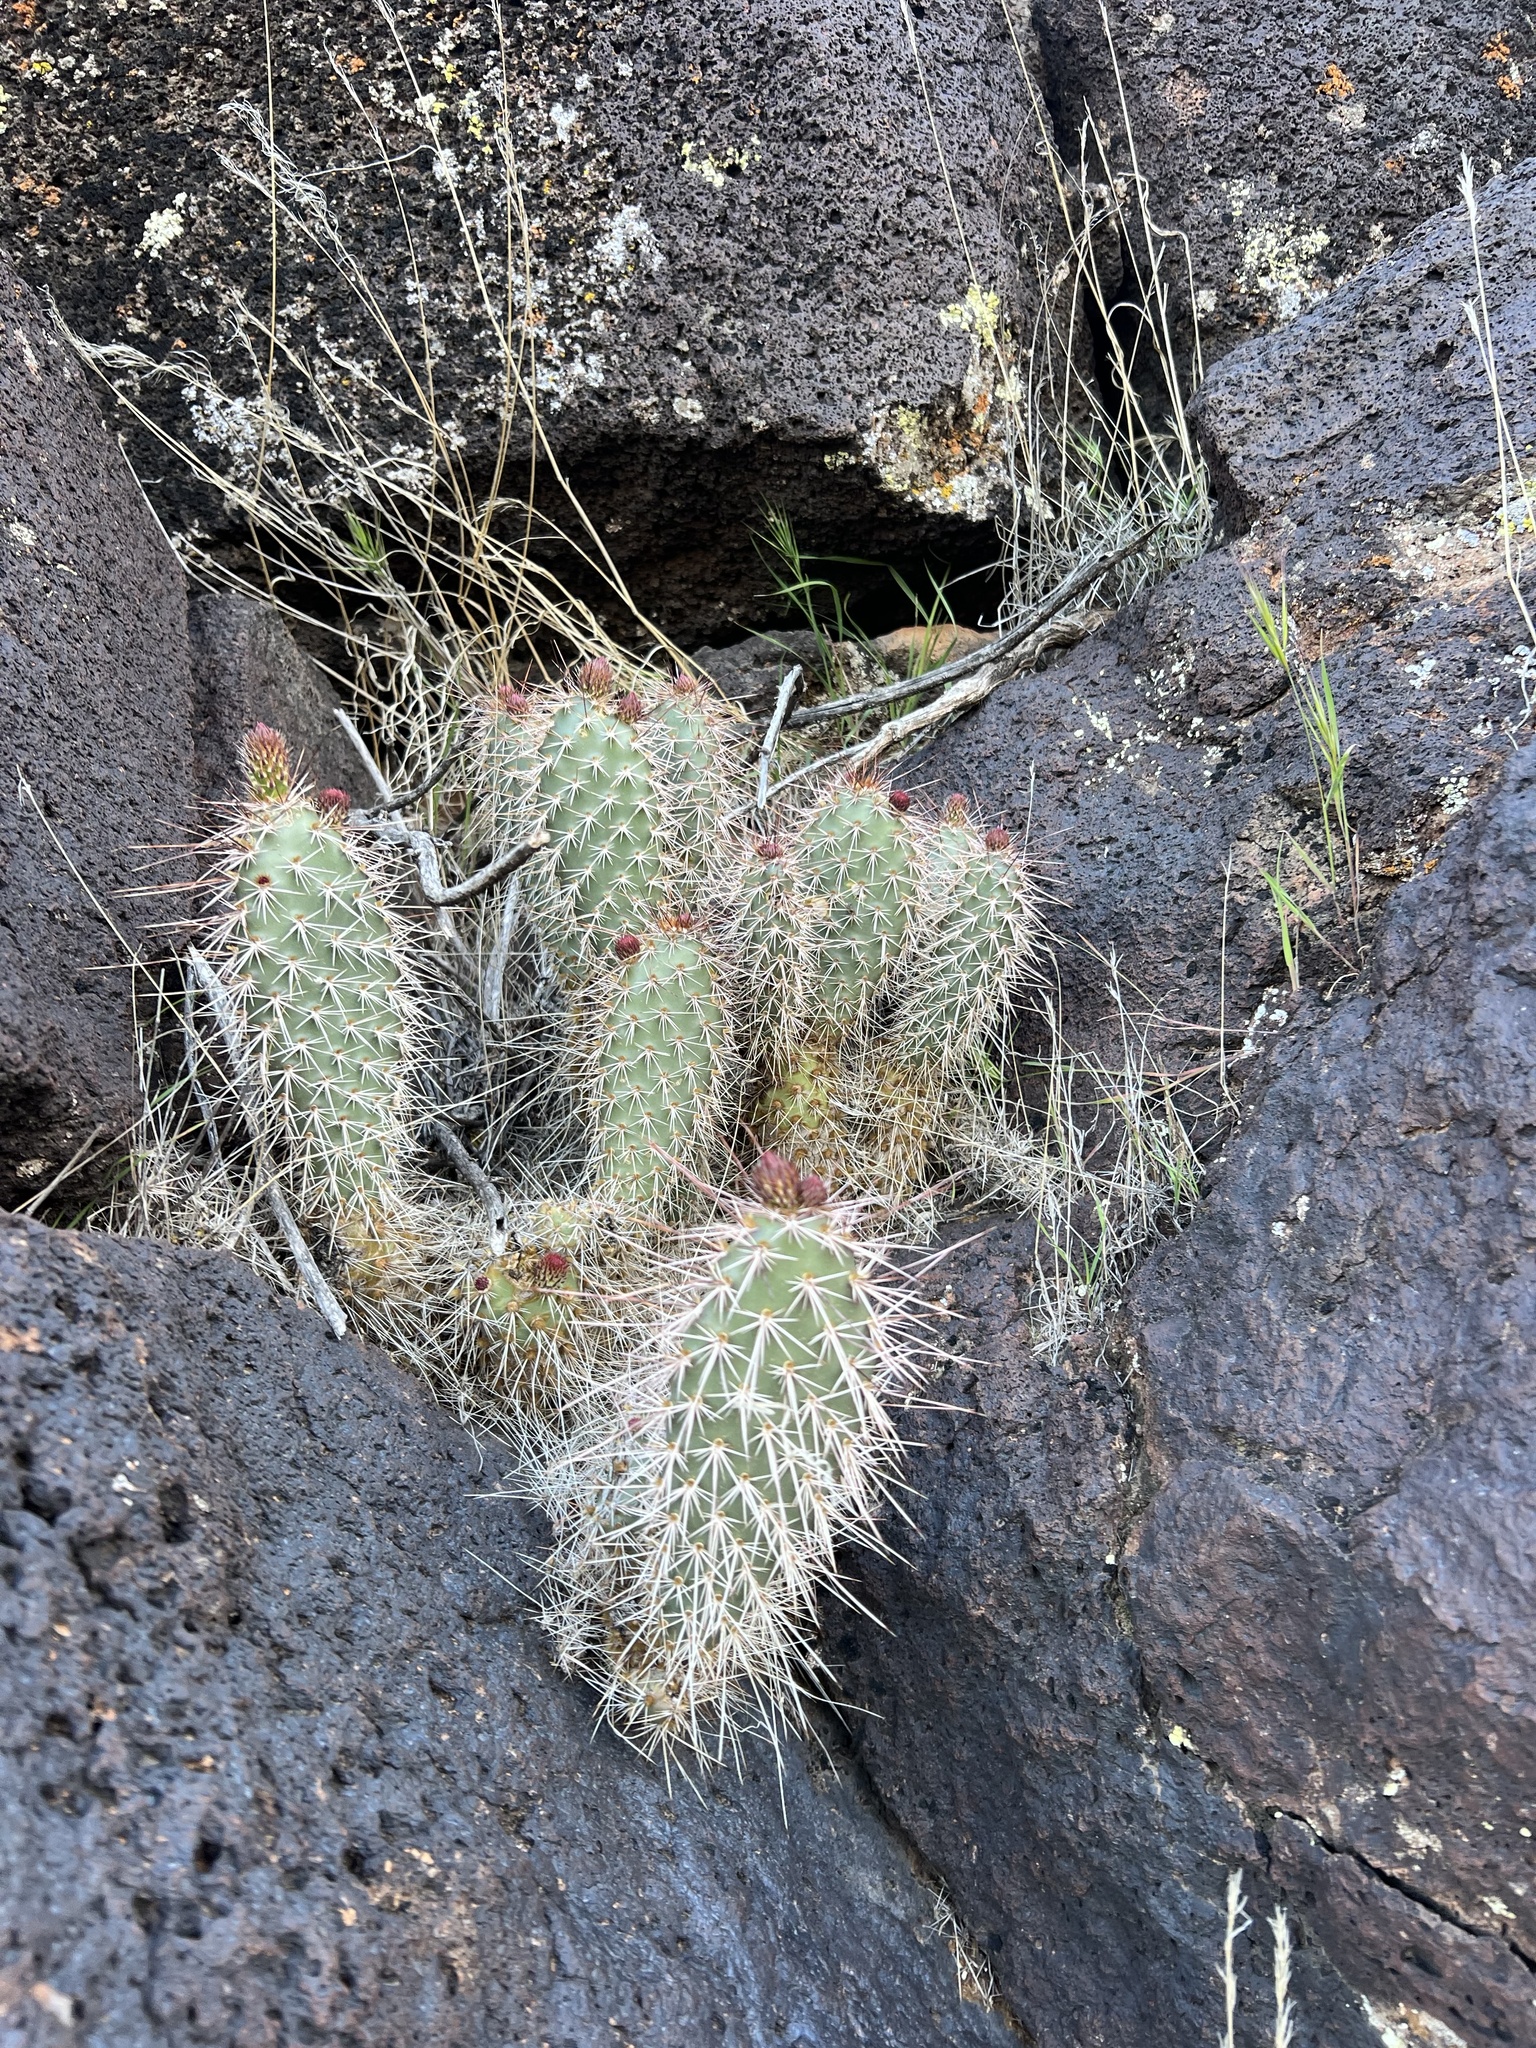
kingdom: Plantae
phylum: Tracheophyta
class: Magnoliopsida
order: Caryophyllales
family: Cactaceae
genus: Opuntia
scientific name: Opuntia polyacantha
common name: Plains prickly-pear
